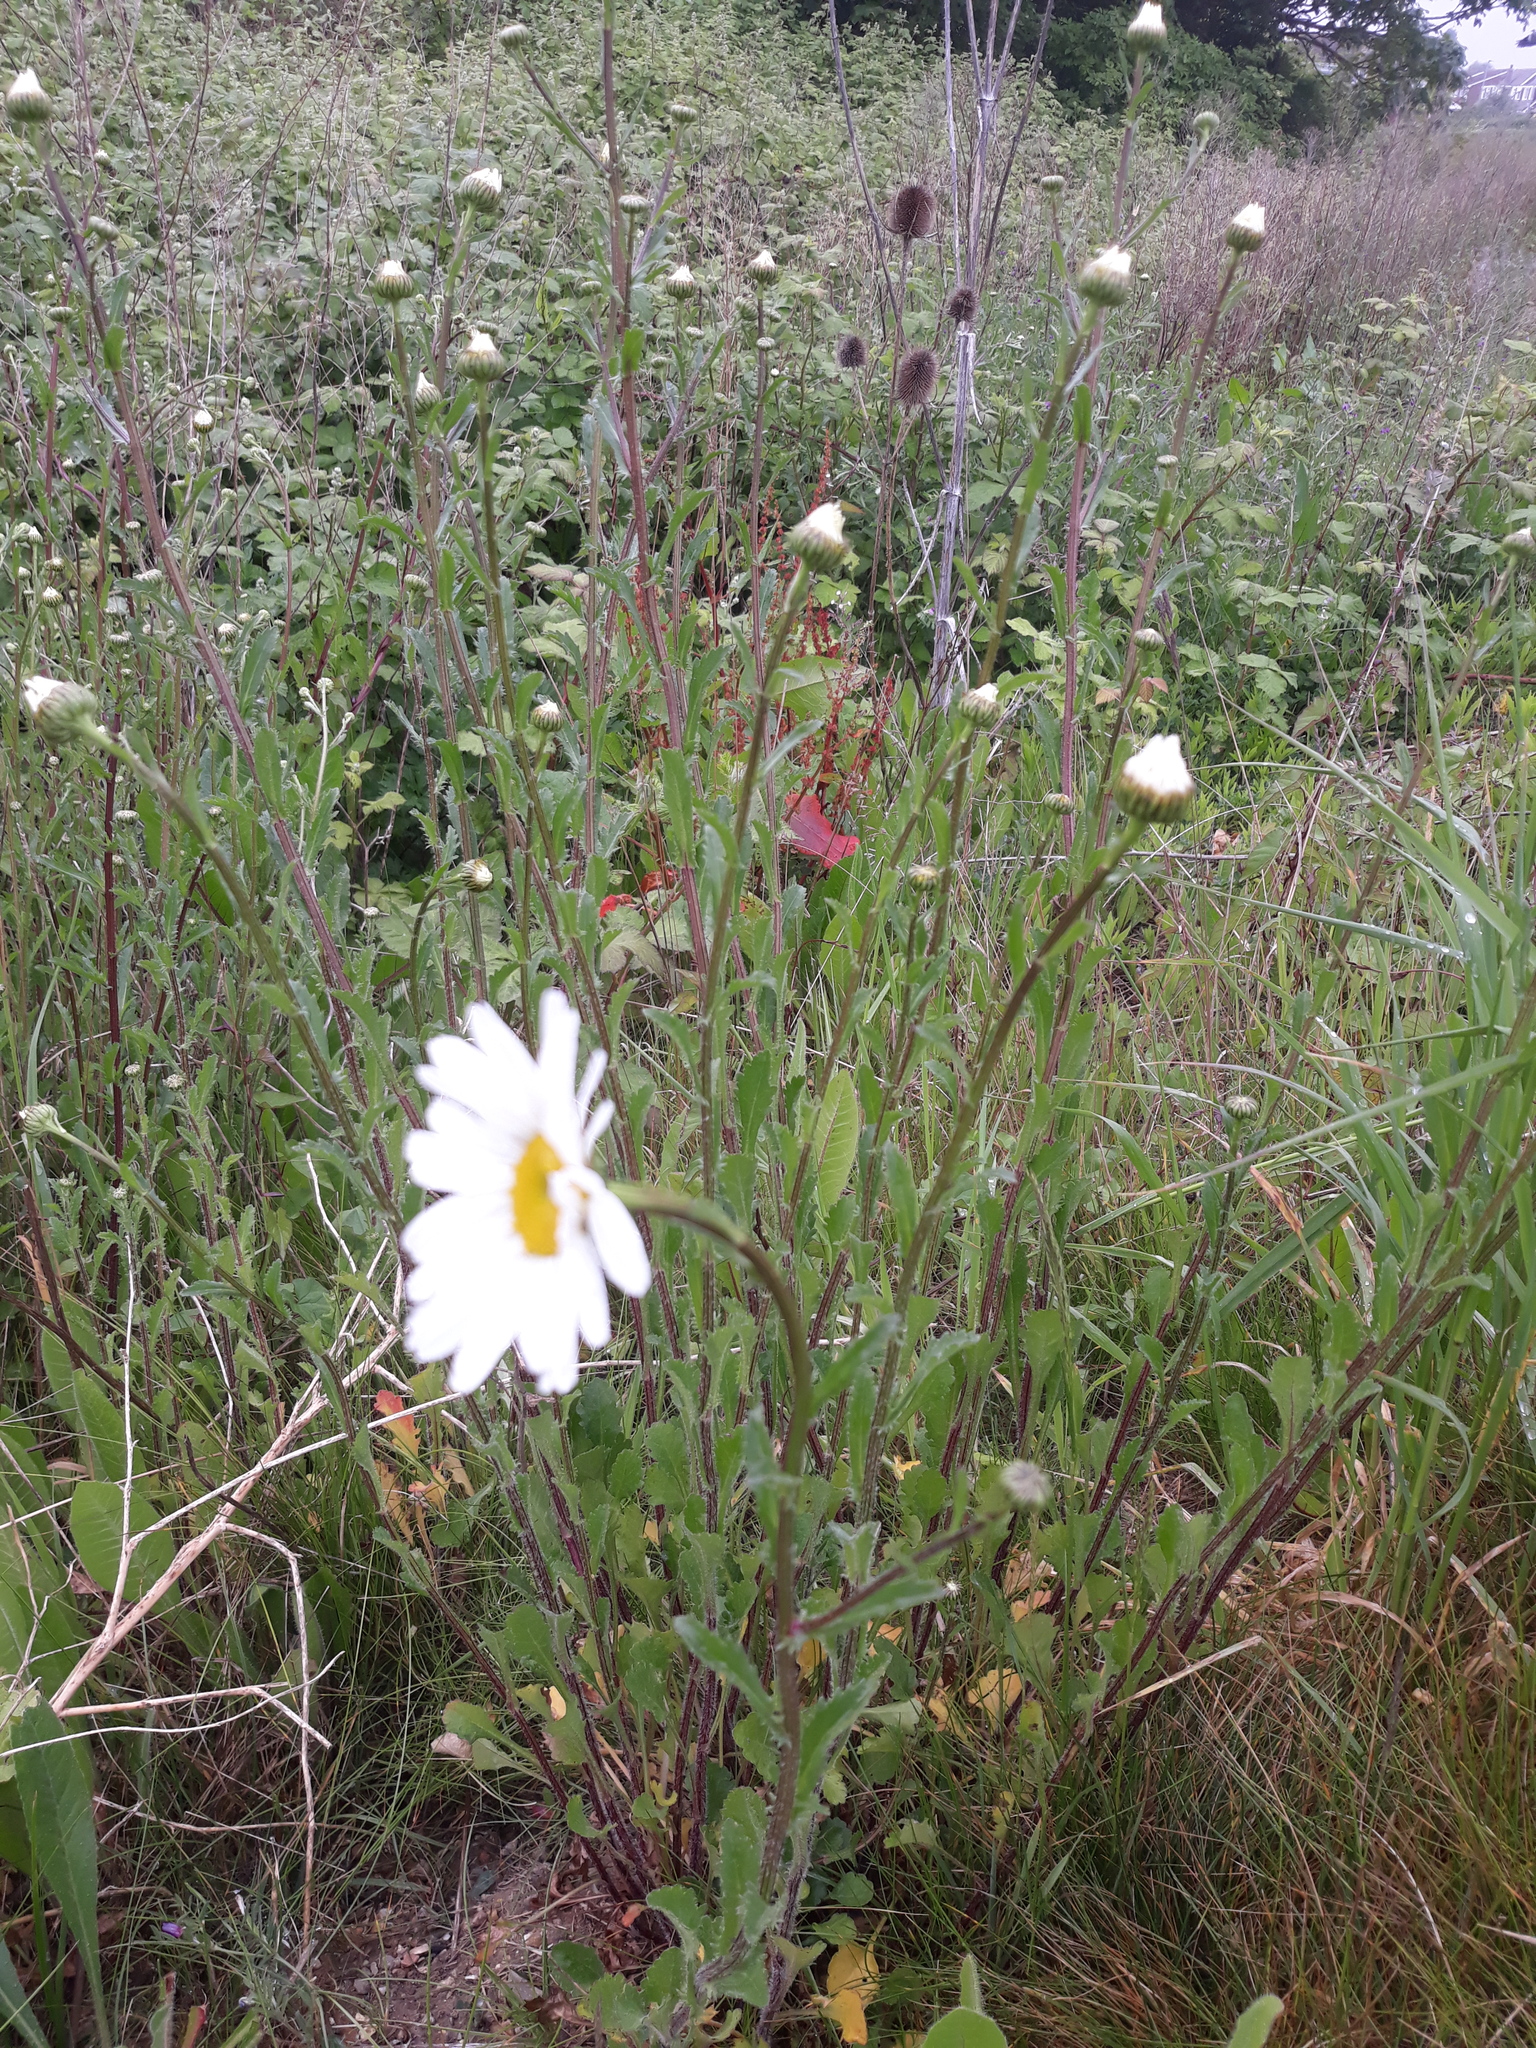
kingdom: Plantae
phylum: Tracheophyta
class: Magnoliopsida
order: Asterales
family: Asteraceae
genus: Leucanthemum
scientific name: Leucanthemum vulgare
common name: Oxeye daisy
